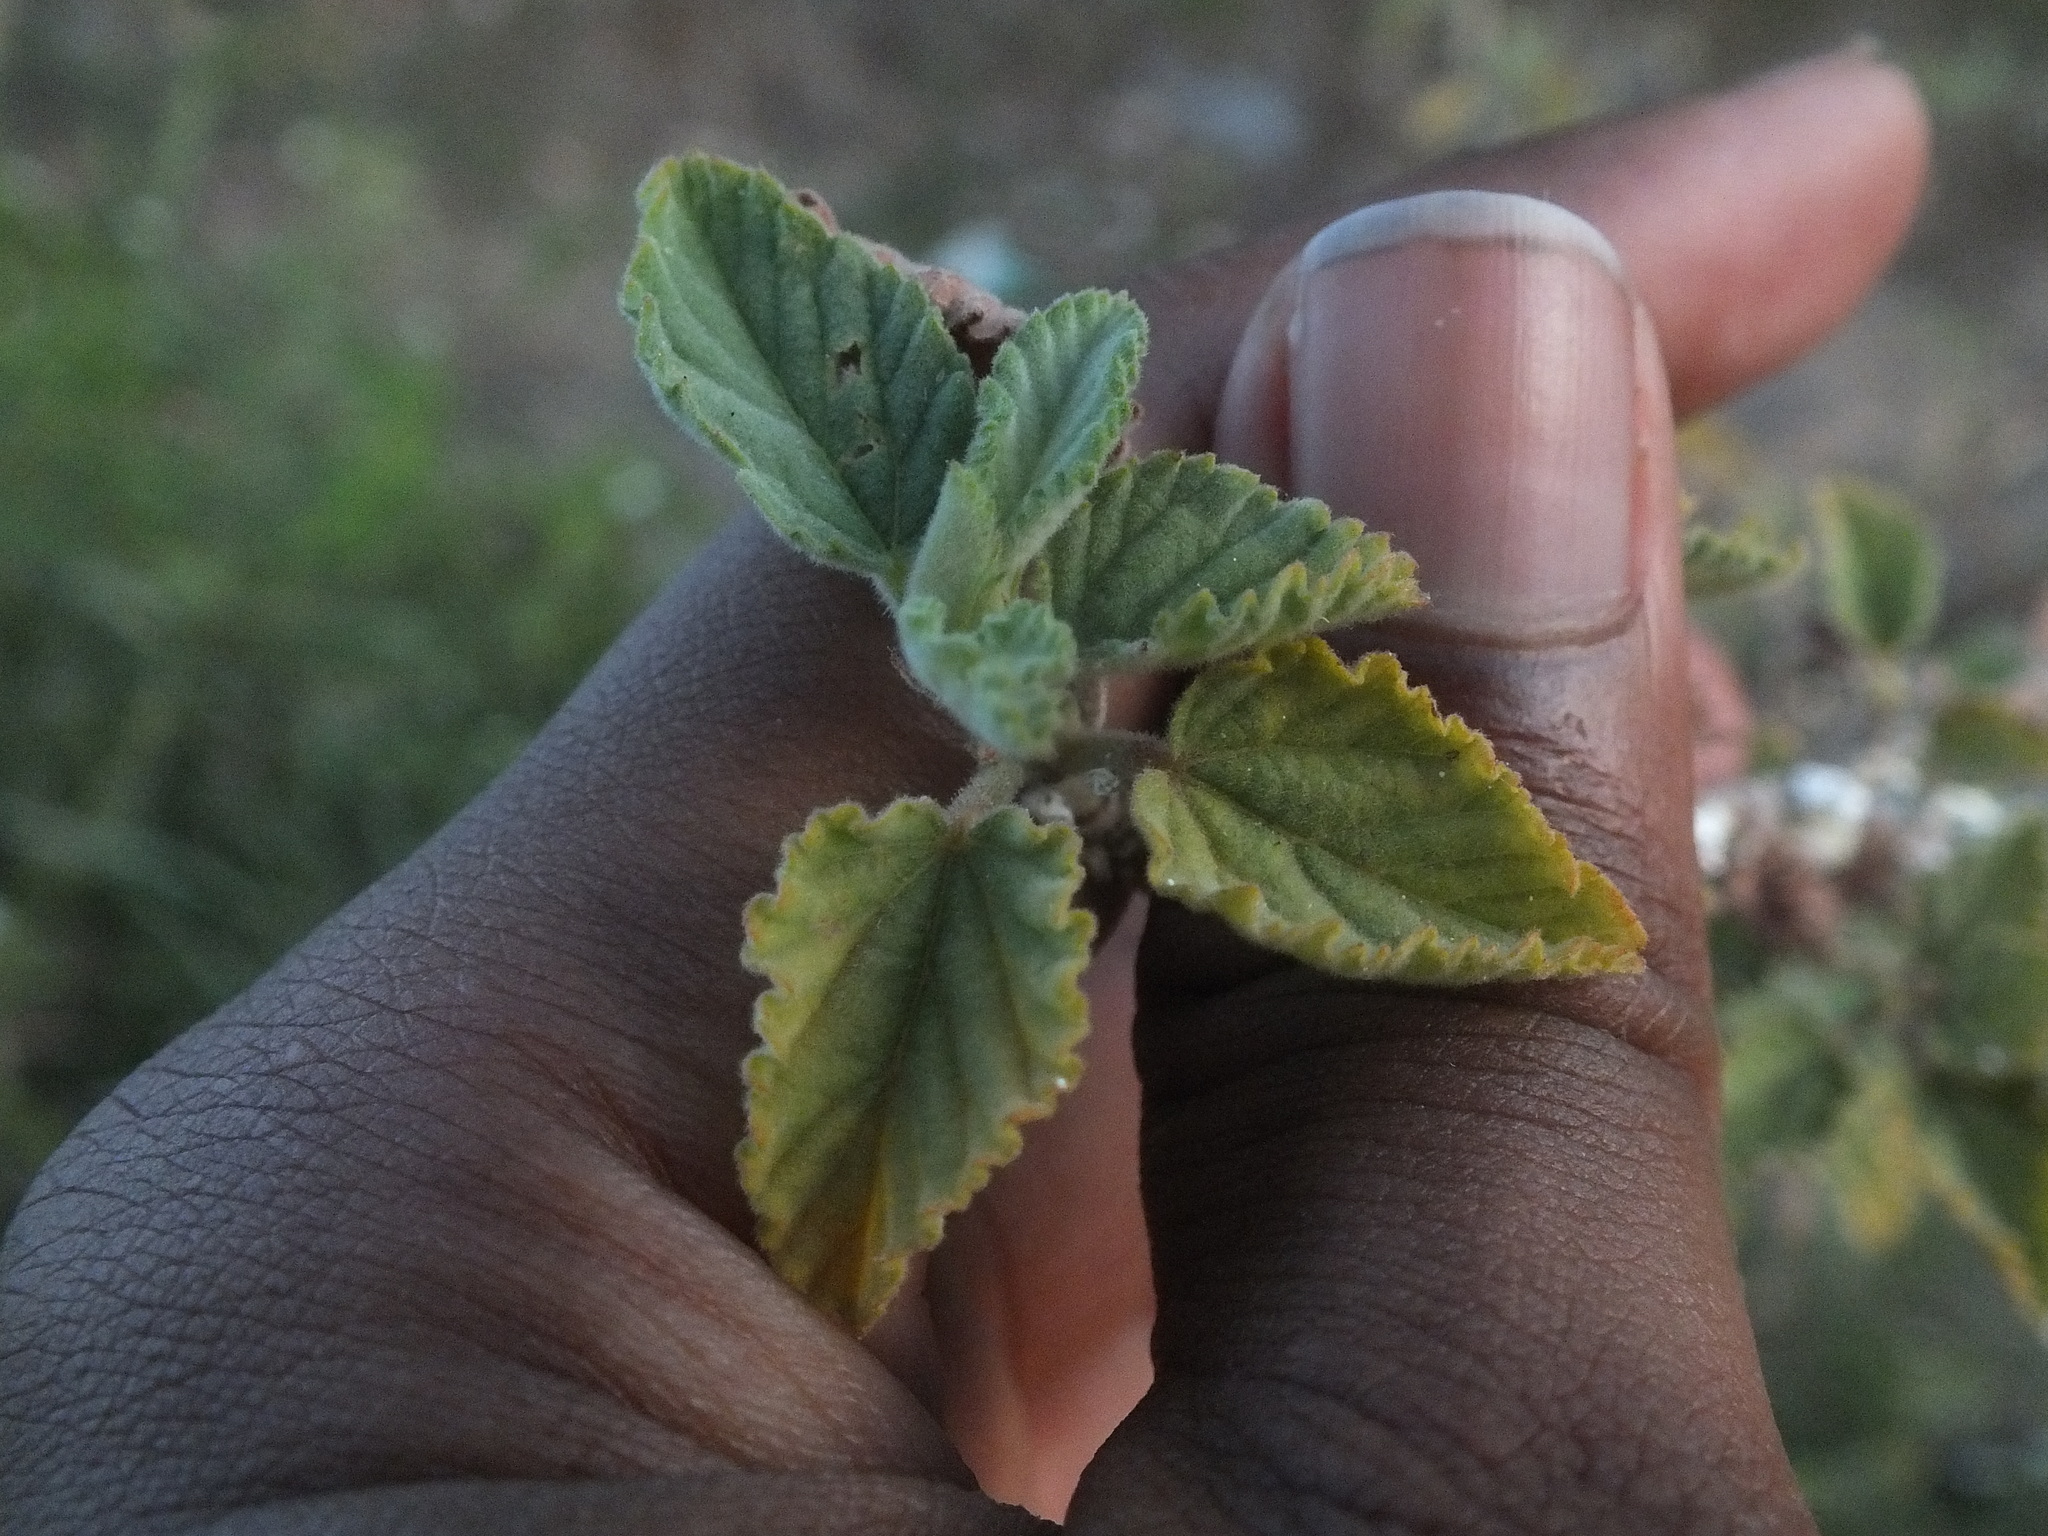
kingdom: Plantae
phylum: Tracheophyta
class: Magnoliopsida
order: Malvales
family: Malvaceae
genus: Waltheria
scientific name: Waltheria indica
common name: Leather-coat
